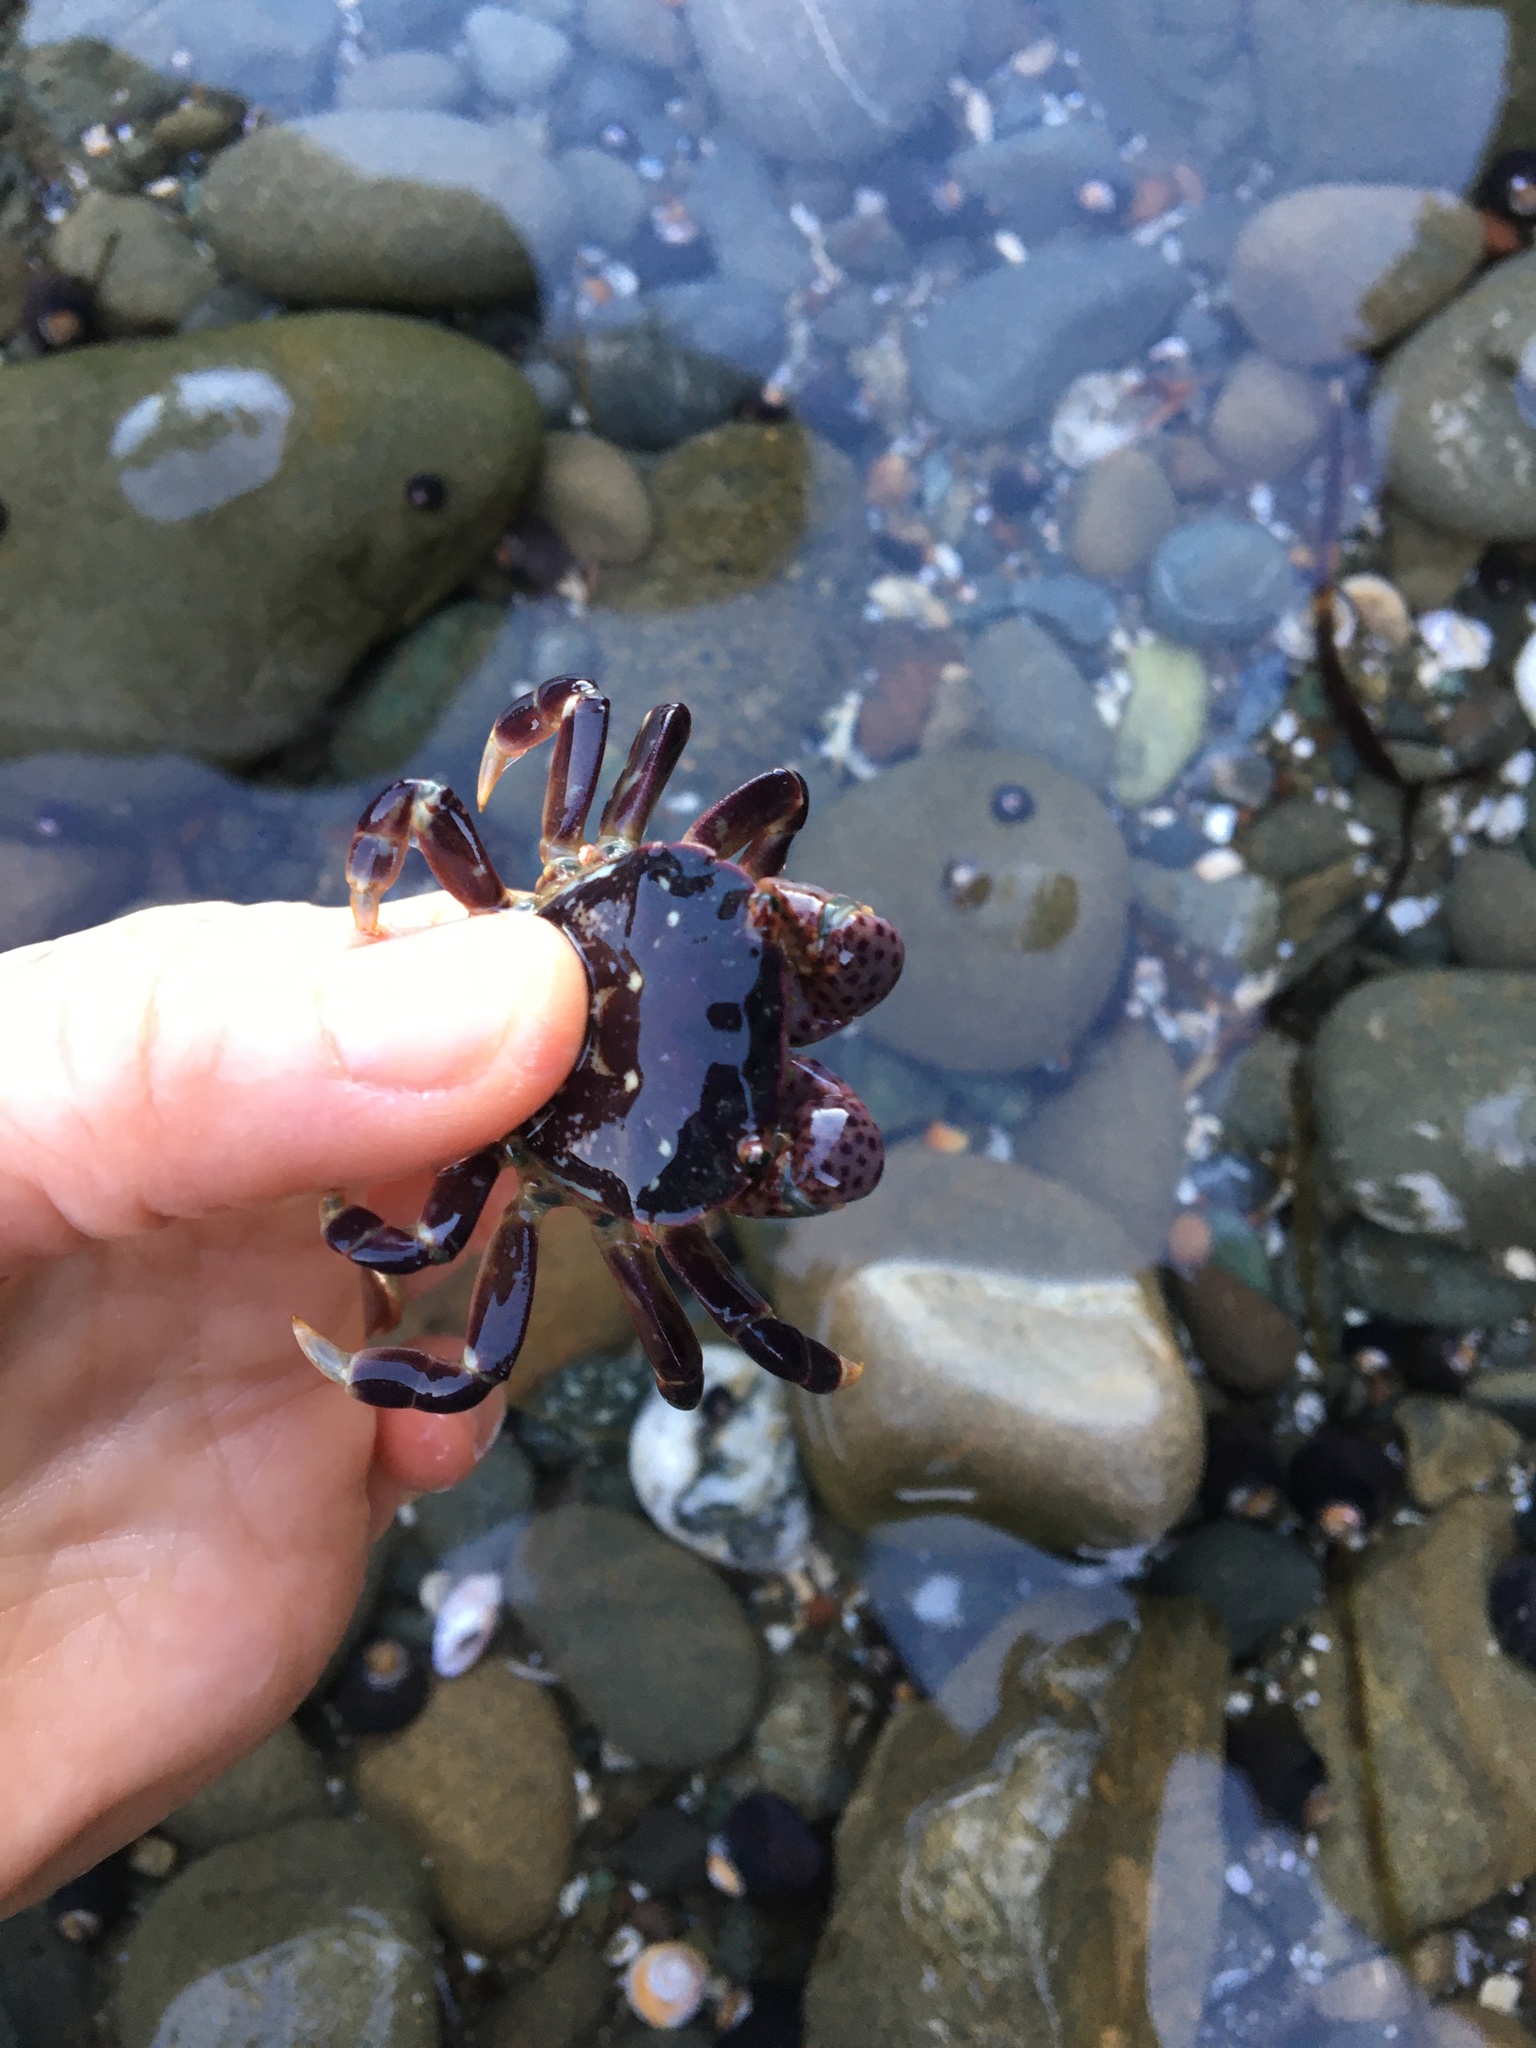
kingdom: Animalia
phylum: Arthropoda
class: Malacostraca
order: Decapoda
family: Varunidae
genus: Hemigrapsus
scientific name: Hemigrapsus nudus
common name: Purple shore crab
